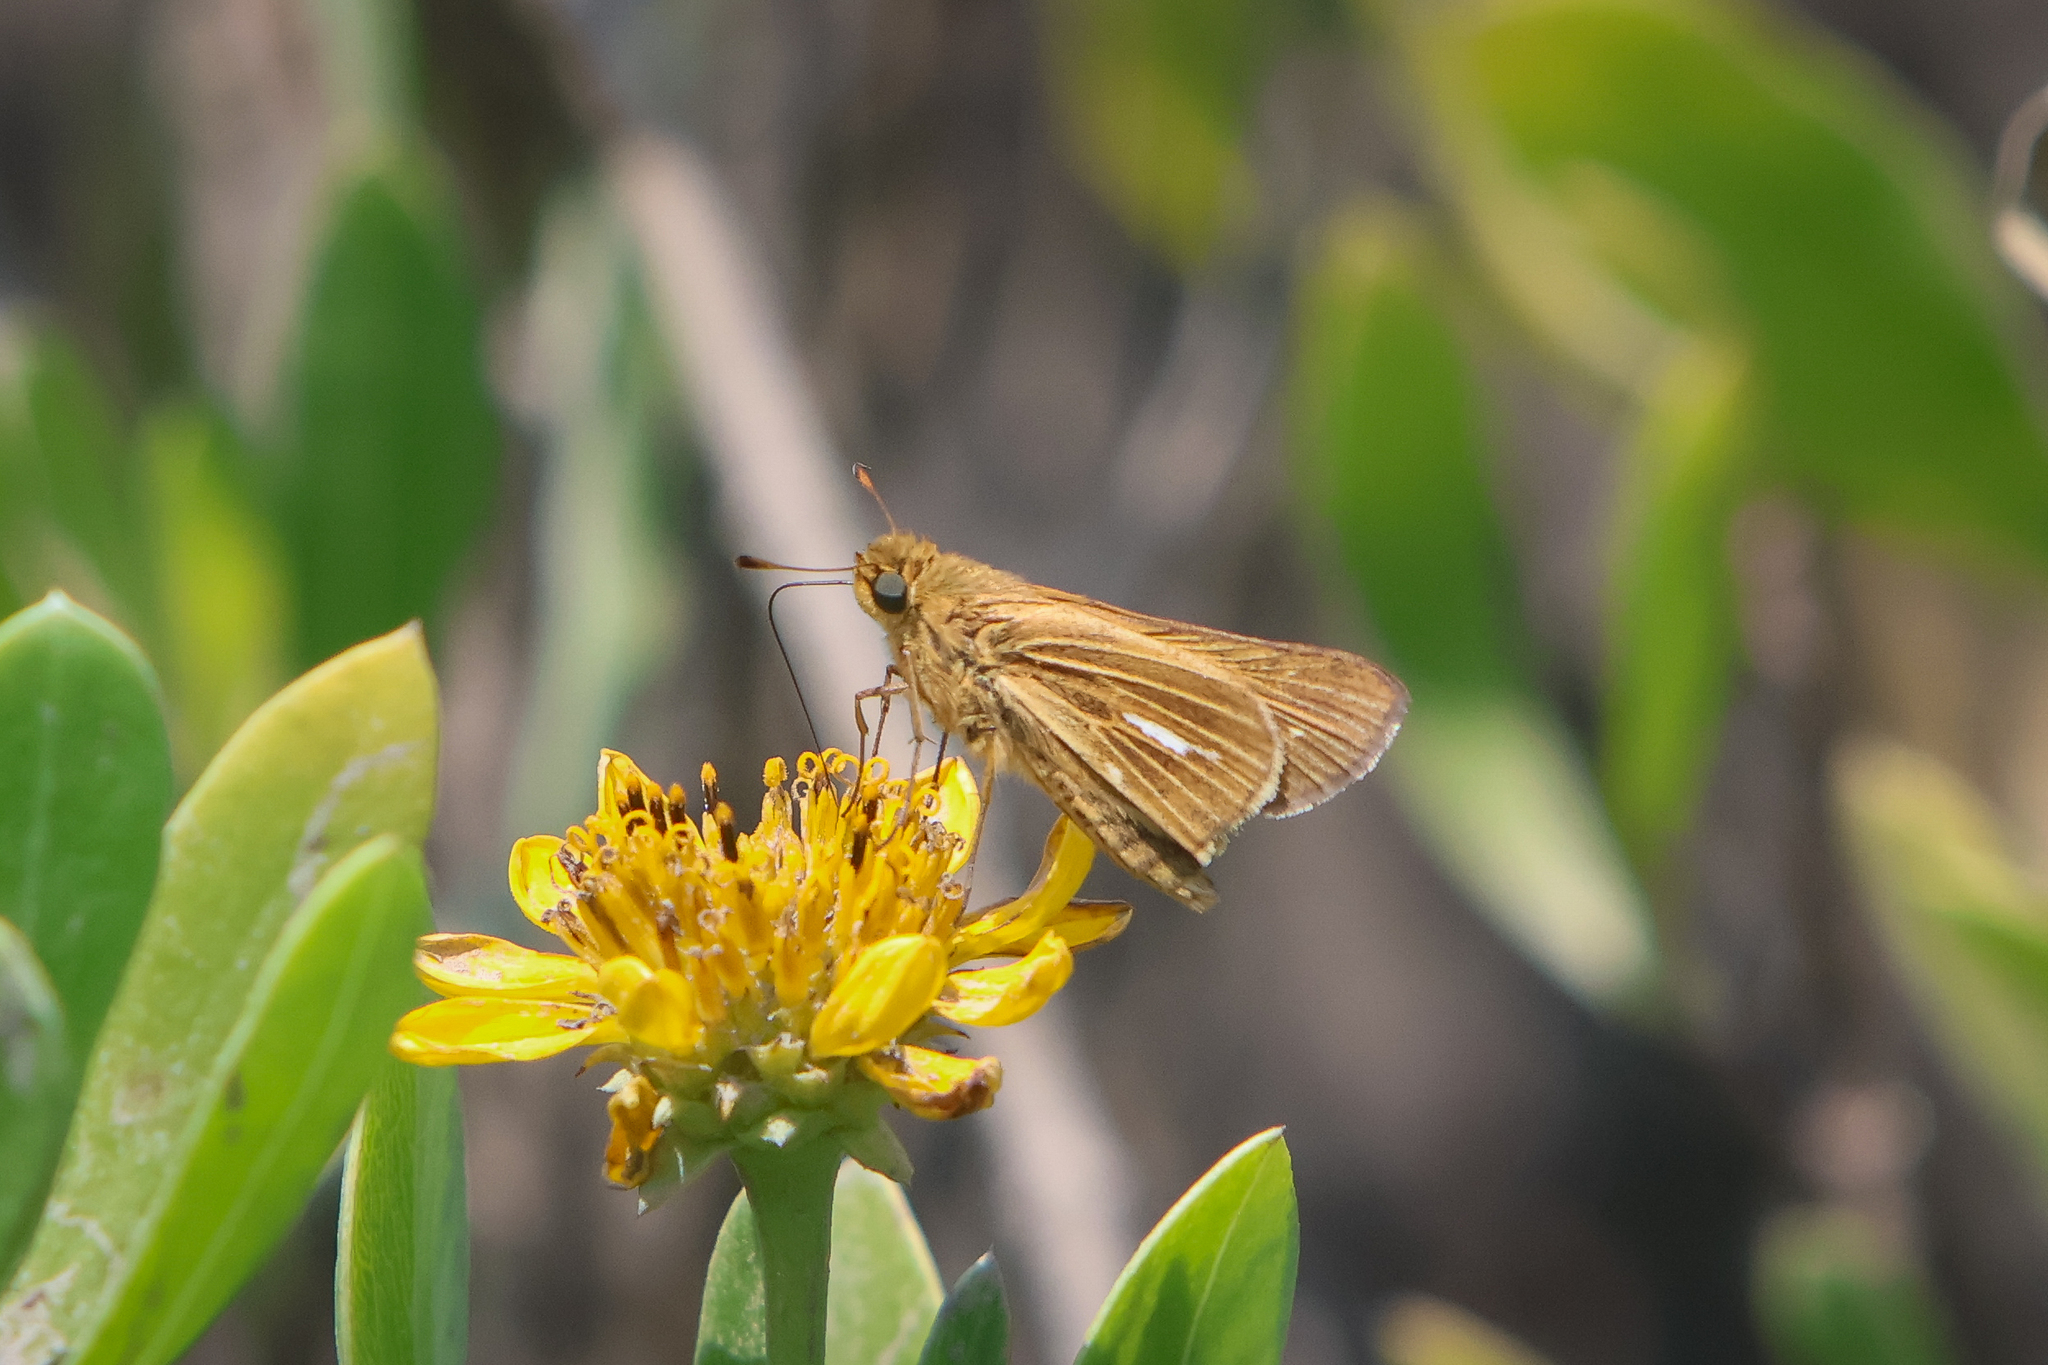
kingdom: Animalia
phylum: Arthropoda
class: Insecta
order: Lepidoptera
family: Hesperiidae
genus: Panoquina
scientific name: Panoquina panoquin
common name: Salt marsh skipper
